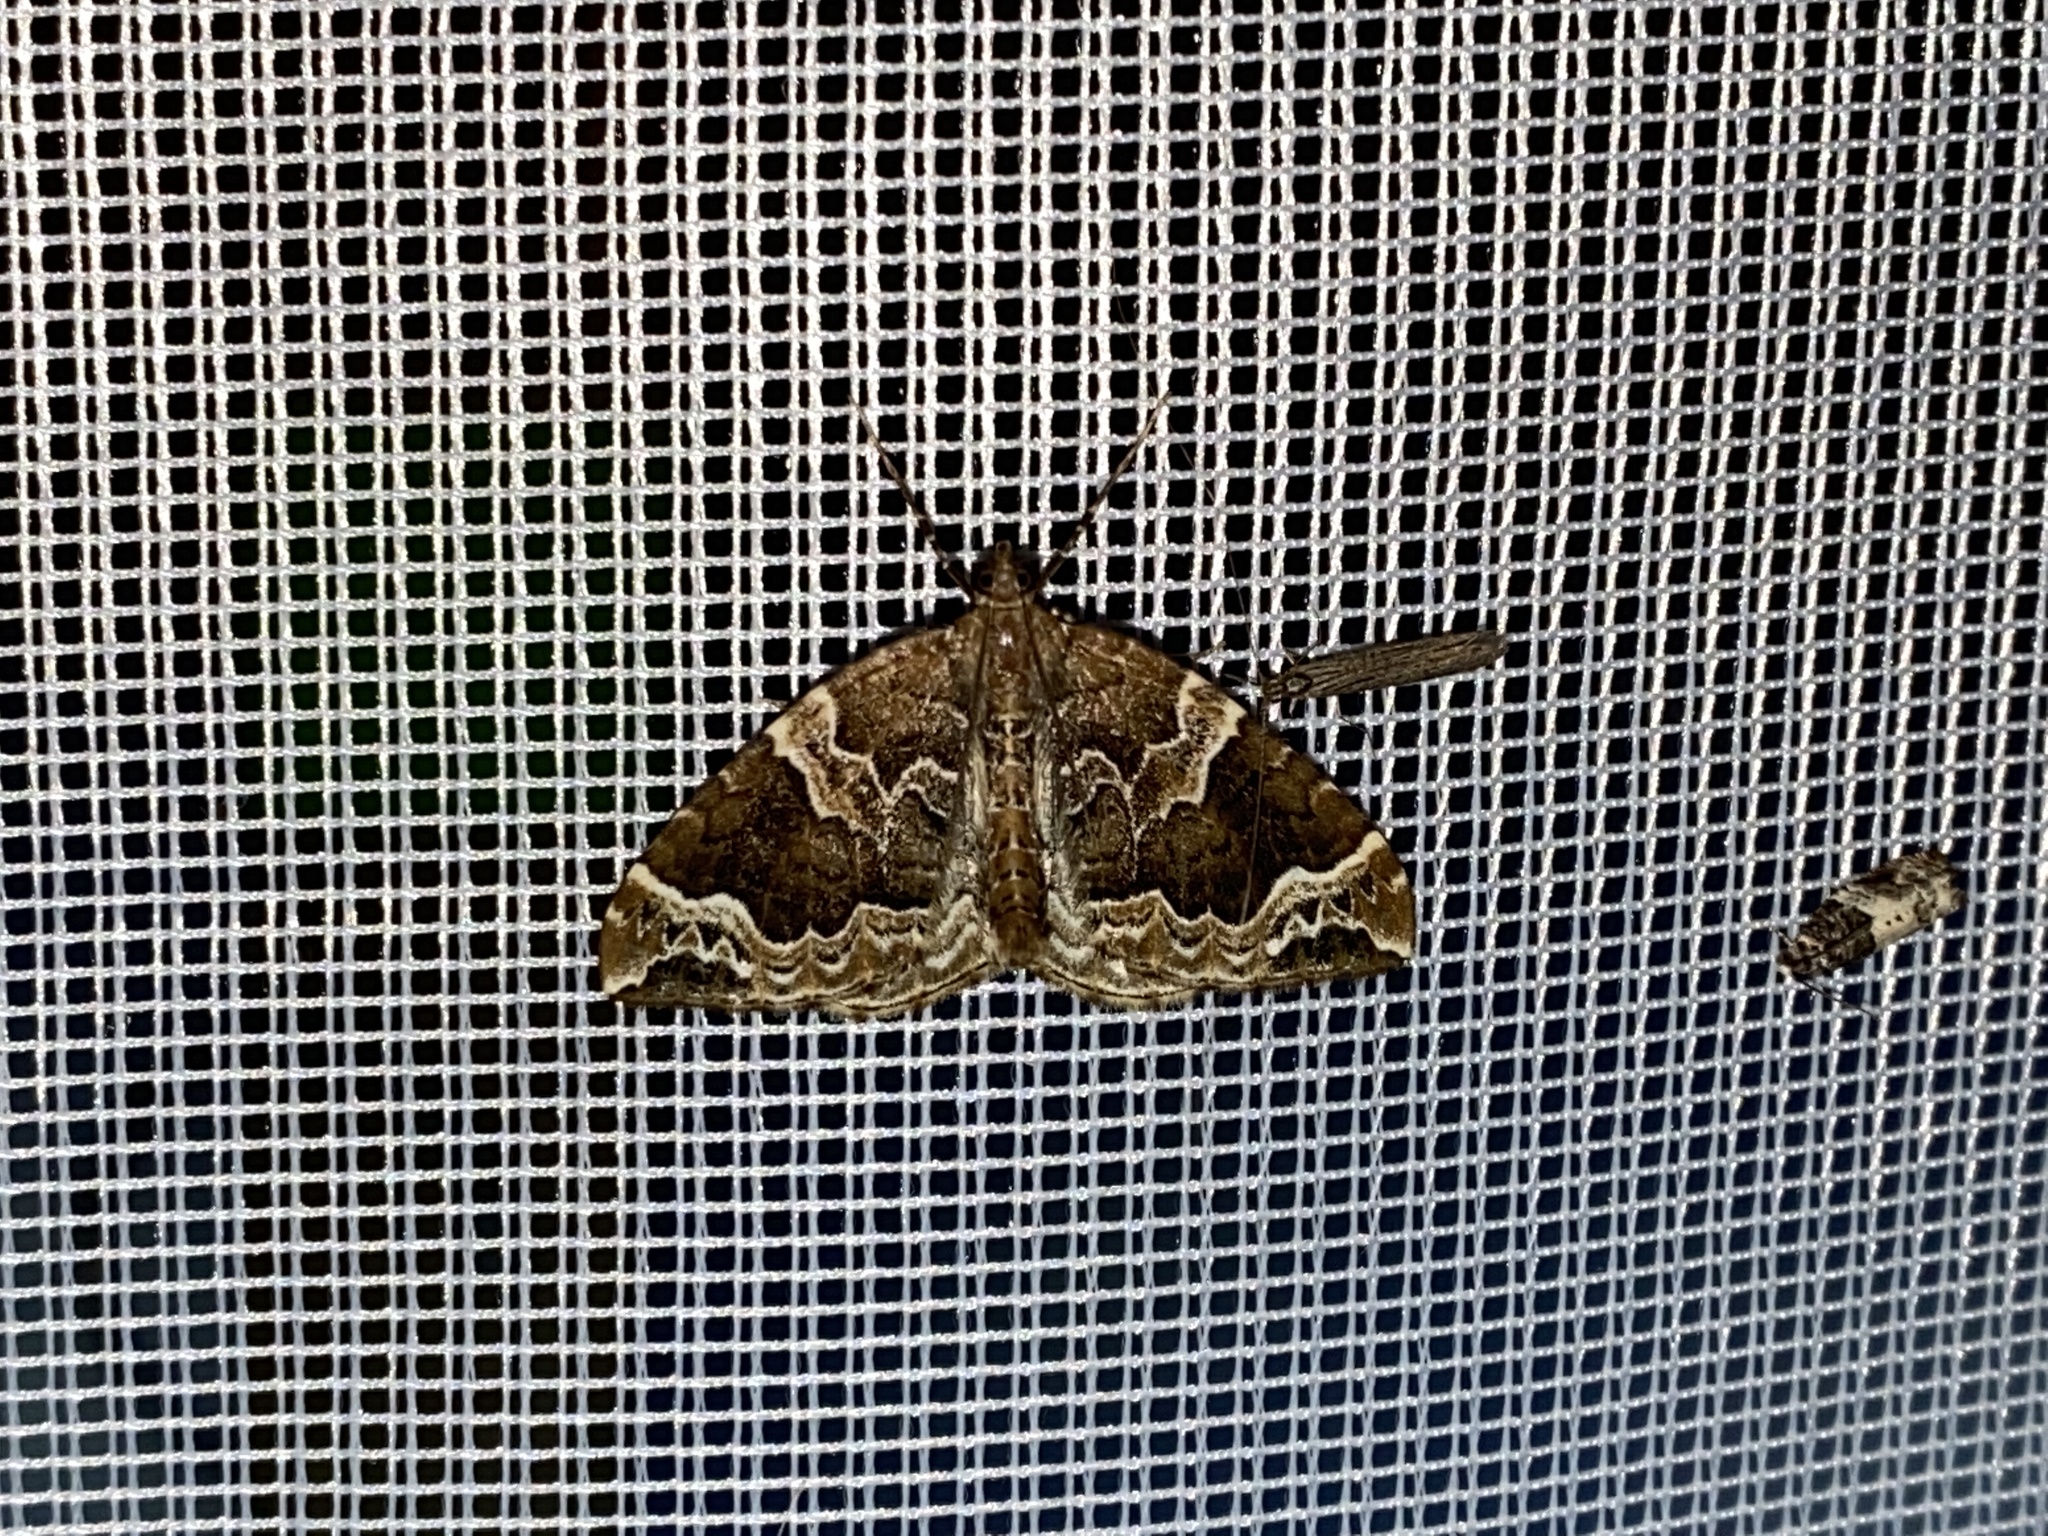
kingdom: Animalia
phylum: Arthropoda
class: Insecta
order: Lepidoptera
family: Geometridae
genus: Eulithis
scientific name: Eulithis prunata
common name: Phoenix
